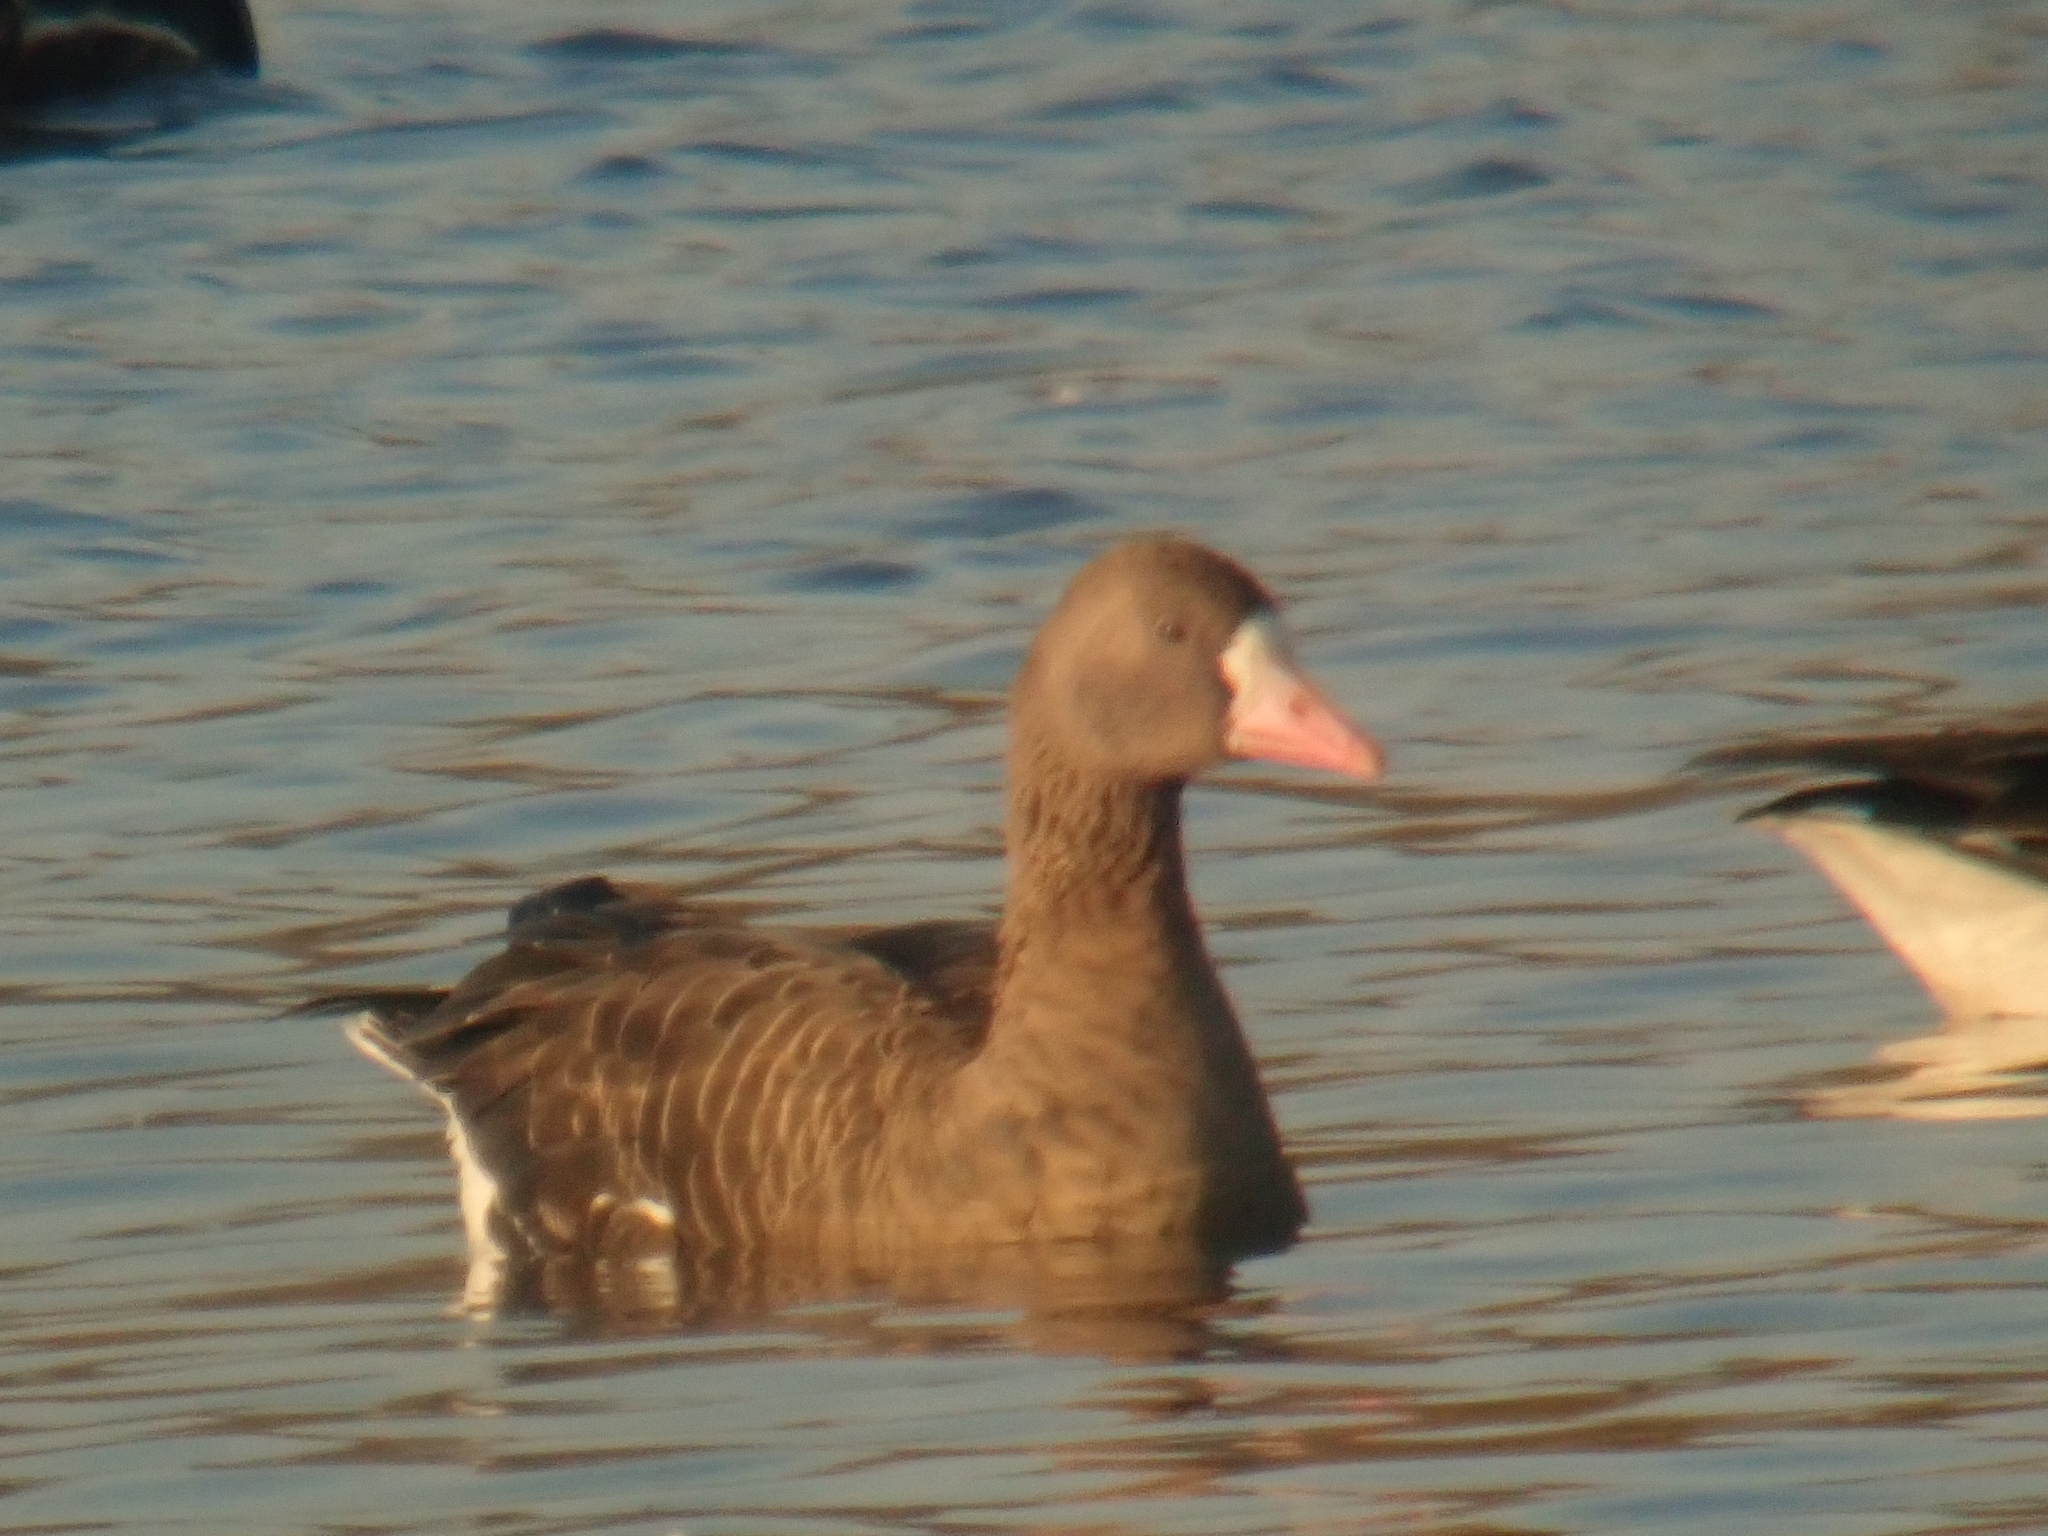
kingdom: Animalia
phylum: Chordata
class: Aves
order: Anseriformes
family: Anatidae
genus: Anser
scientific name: Anser albifrons
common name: Greater white-fronted goose
